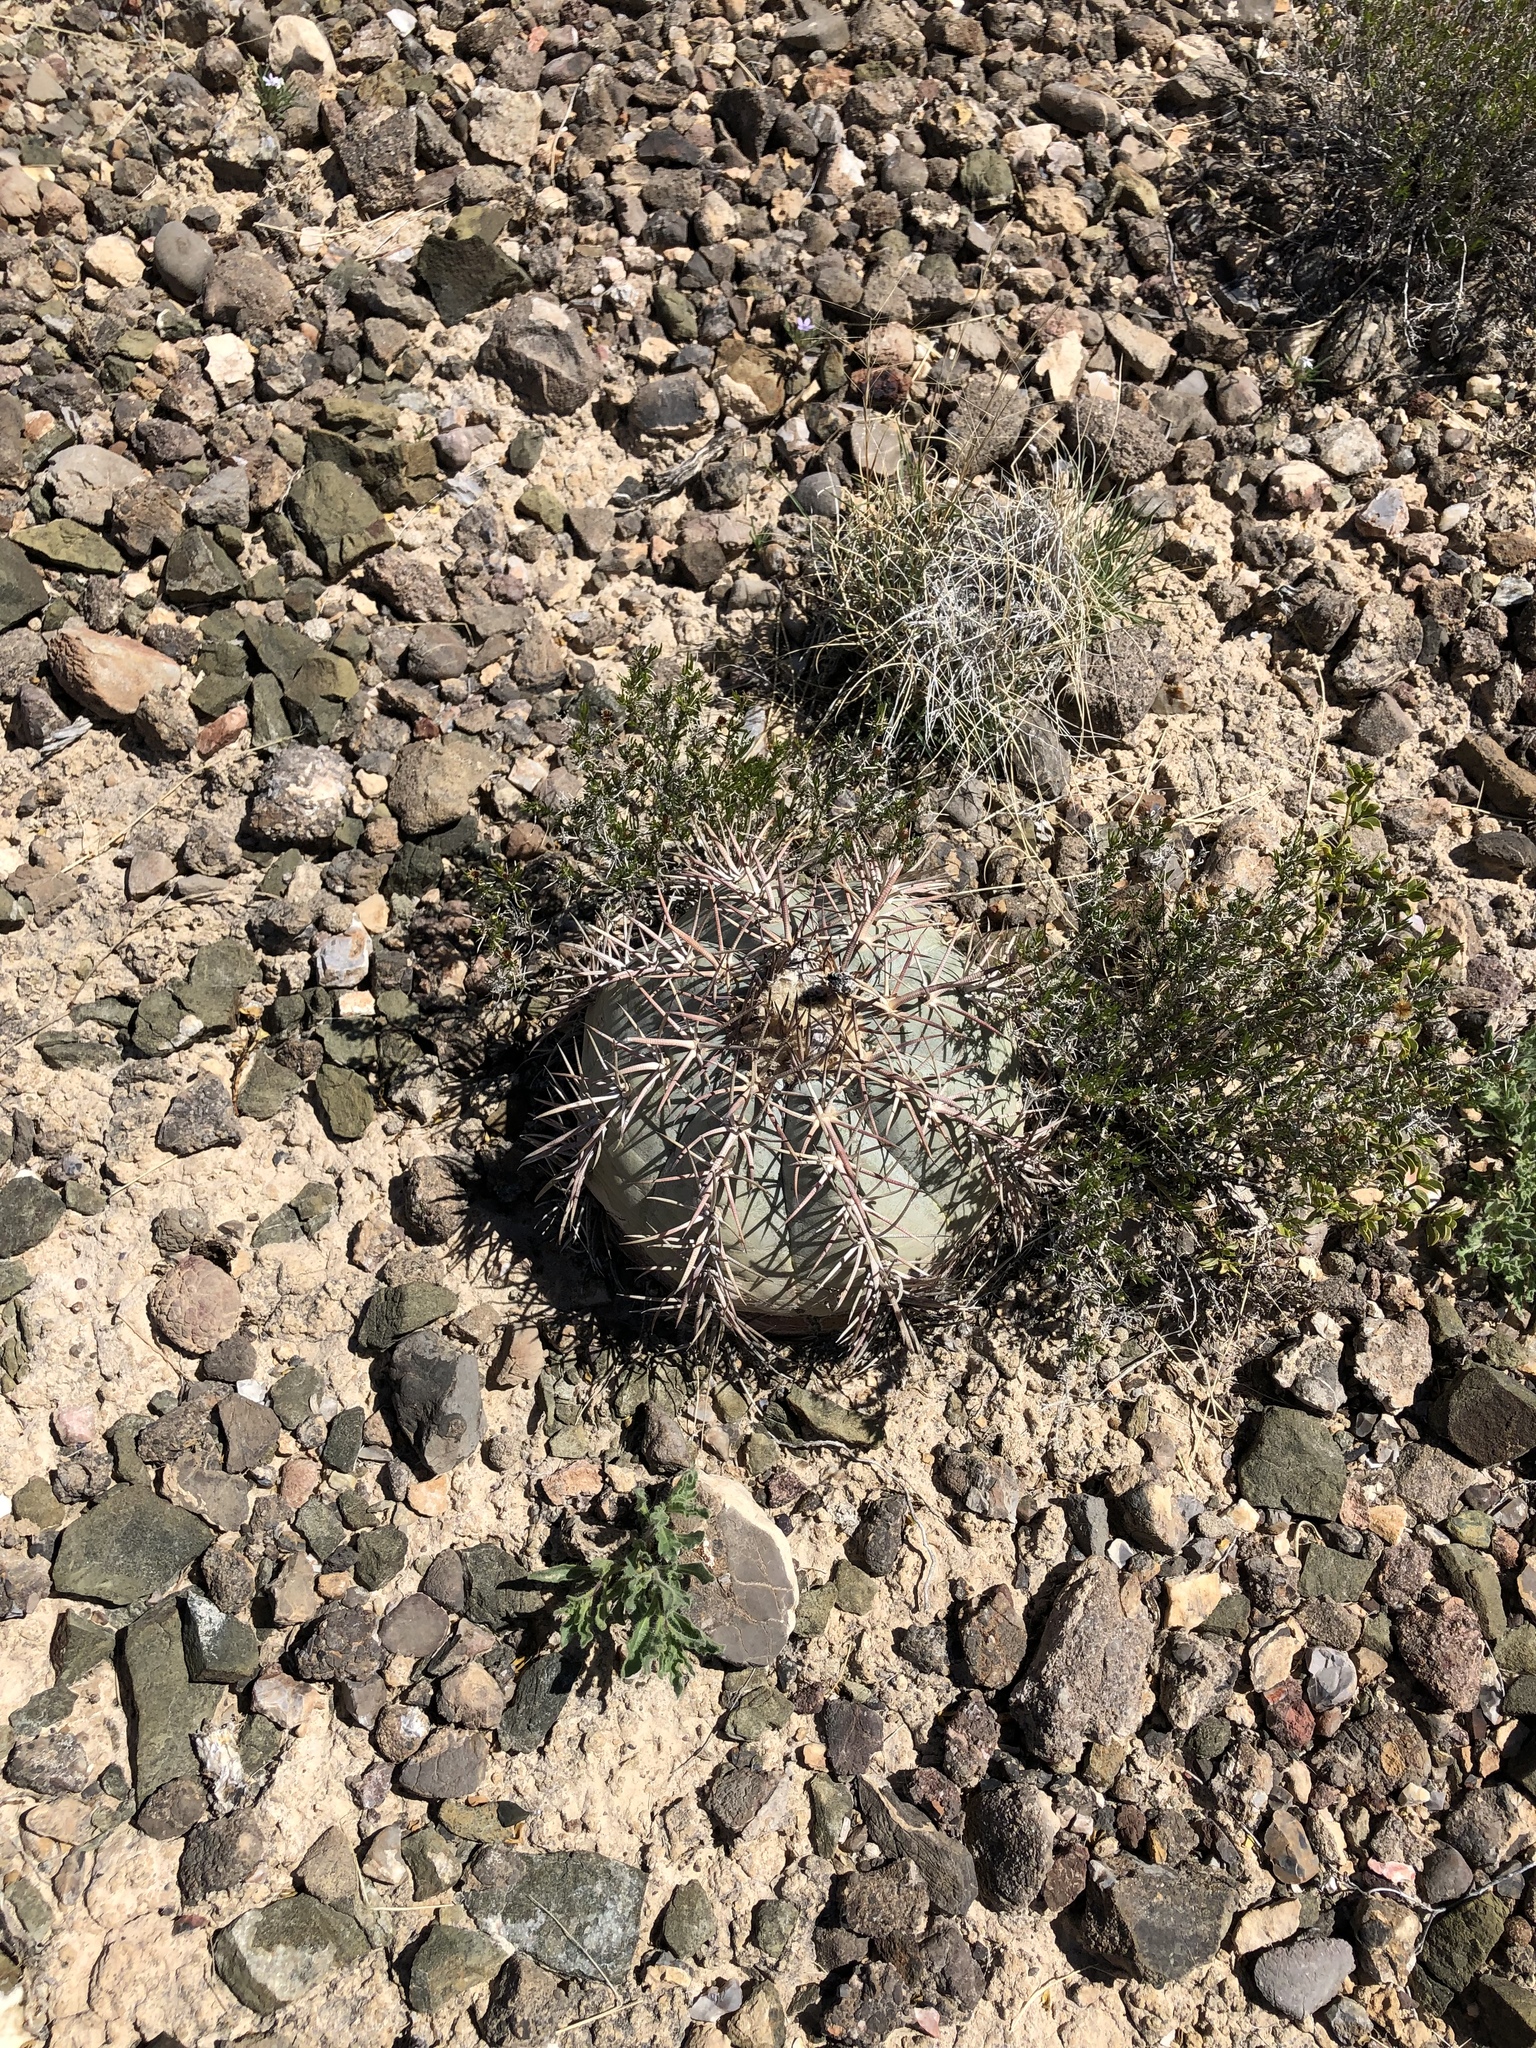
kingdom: Plantae
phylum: Tracheophyta
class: Magnoliopsida
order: Caryophyllales
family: Cactaceae
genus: Echinocactus
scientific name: Echinocactus horizonthalonius
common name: Devilshead
